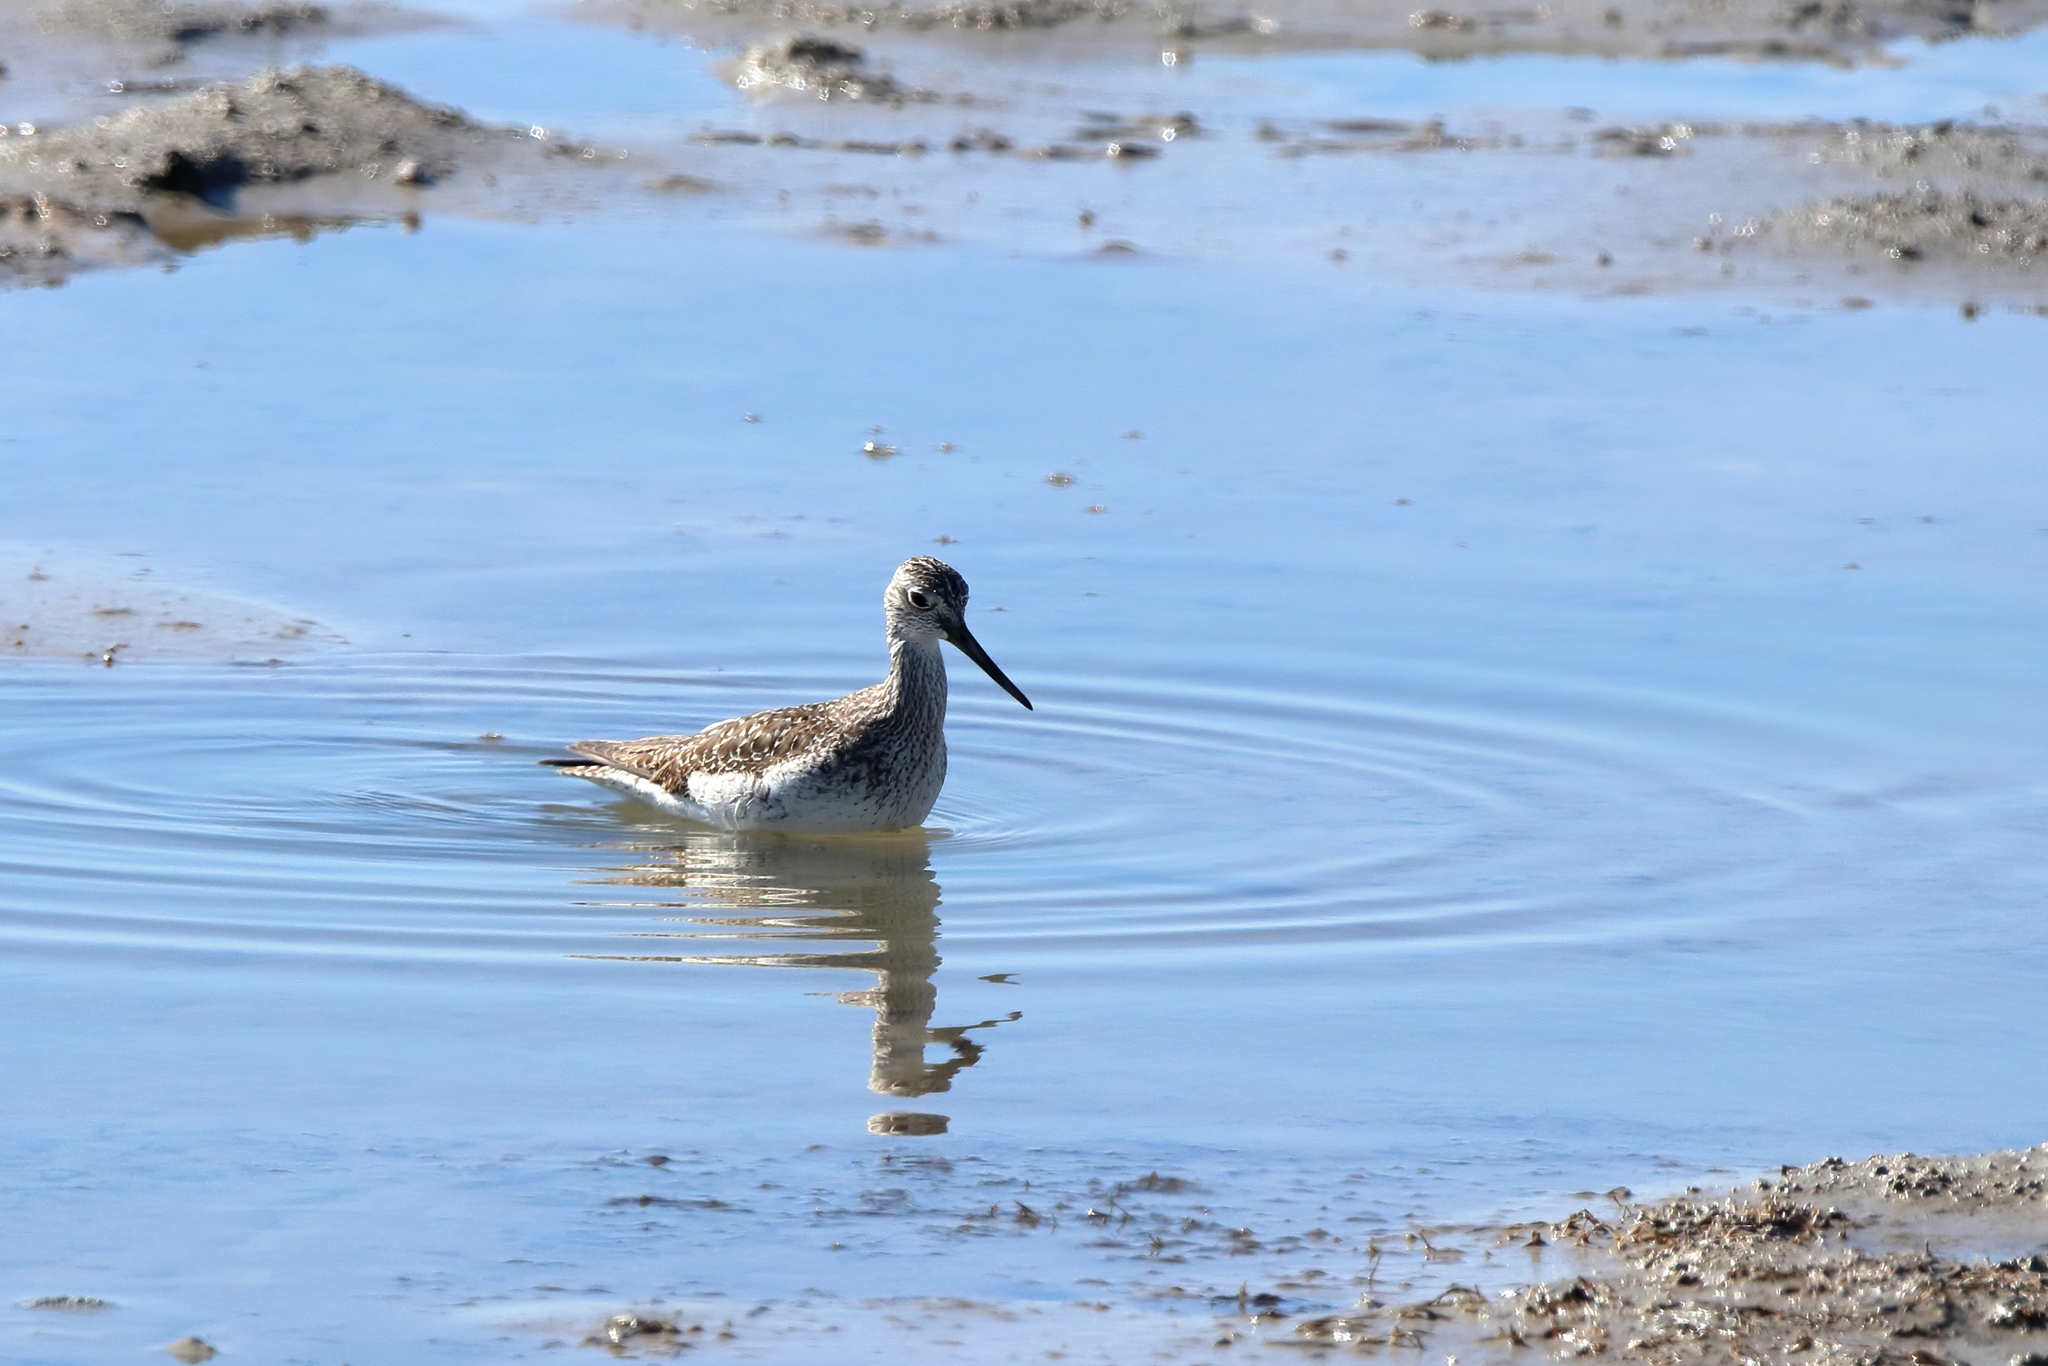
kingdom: Animalia
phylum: Chordata
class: Aves
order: Charadriiformes
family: Scolopacidae
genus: Tringa
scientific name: Tringa melanoleuca
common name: Greater yellowlegs
